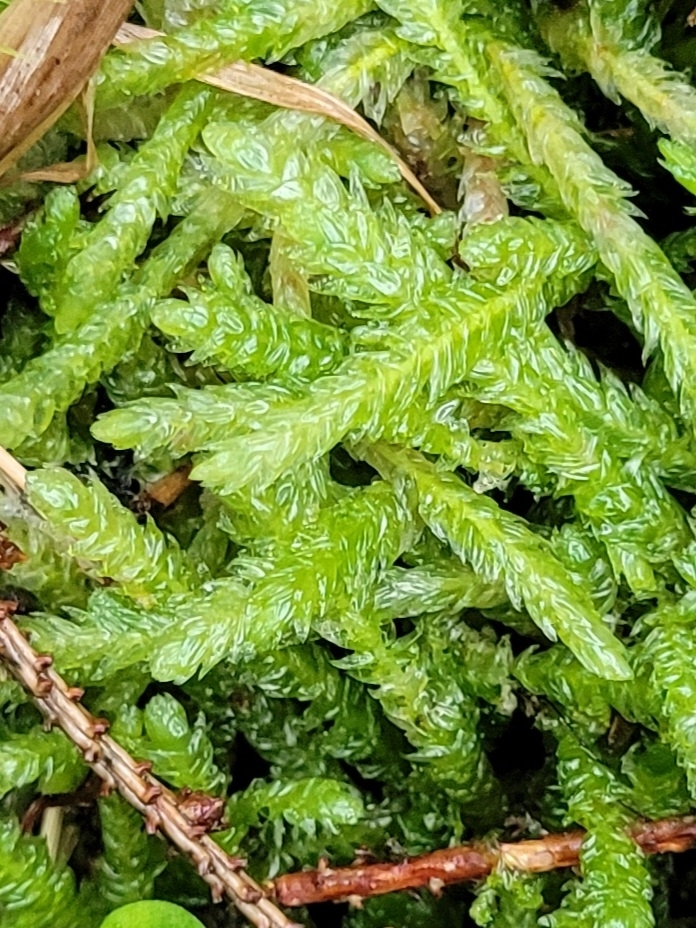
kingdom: Plantae
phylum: Bryophyta
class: Bryopsida
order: Hypnales
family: Plagiotheciaceae
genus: Plagiothecium
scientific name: Plagiothecium undulatum
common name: Waved silk-moss
